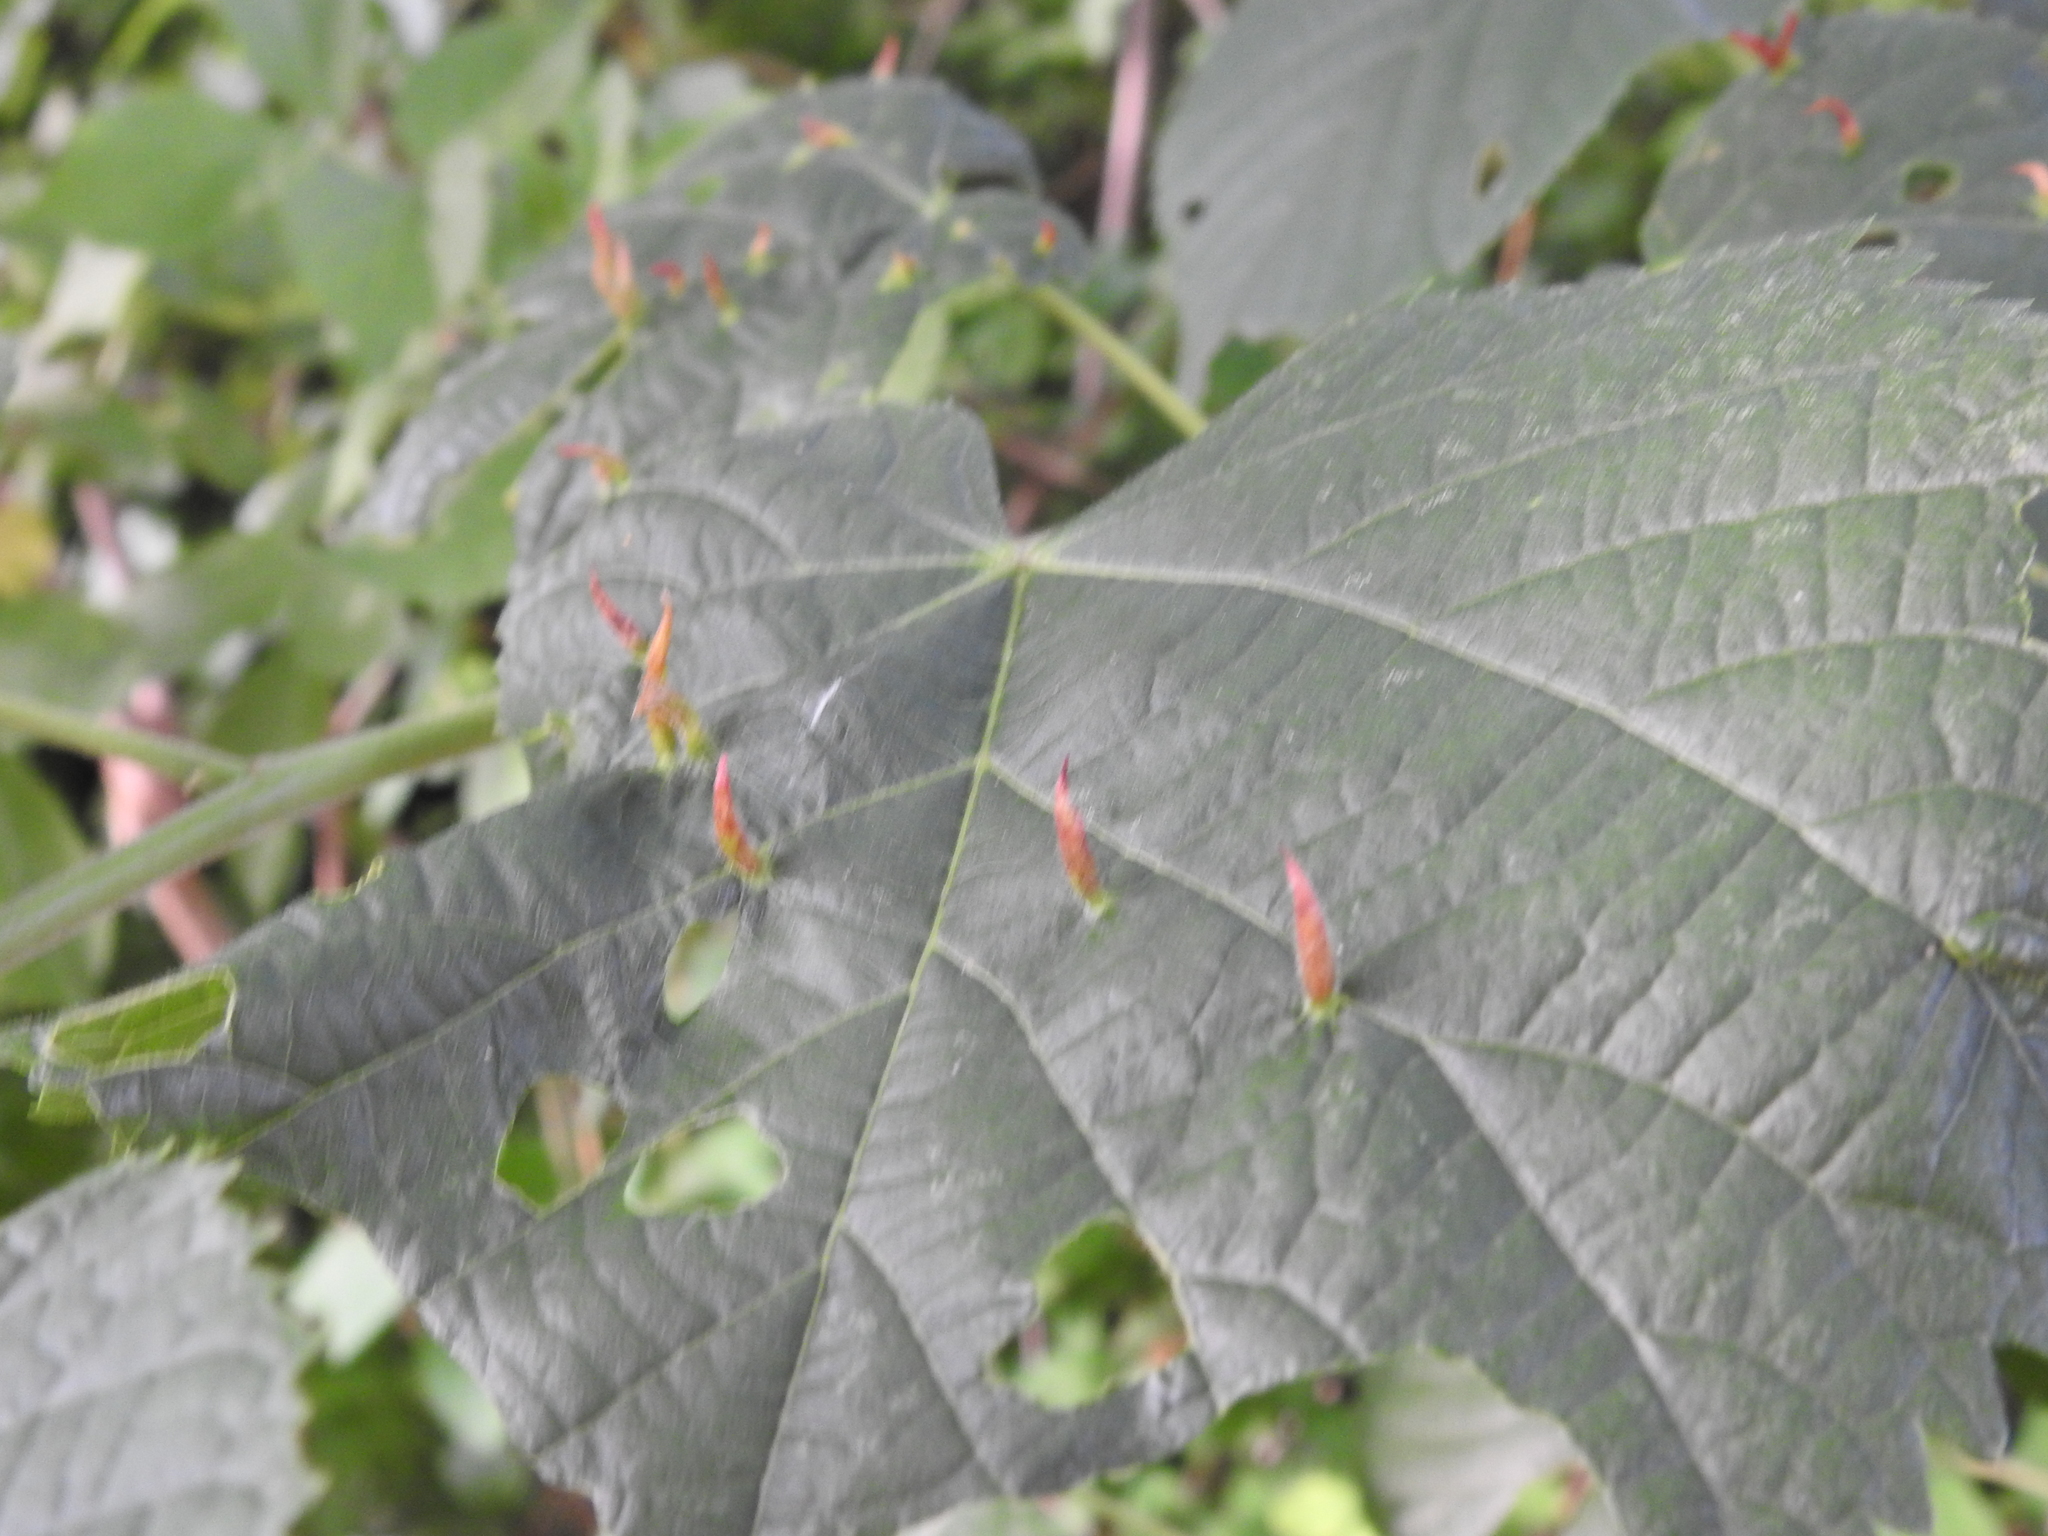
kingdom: Animalia
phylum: Arthropoda
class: Arachnida
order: Trombidiformes
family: Eriophyidae
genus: Eriophyes
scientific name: Eriophyes tiliae
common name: Red nail gall mite
